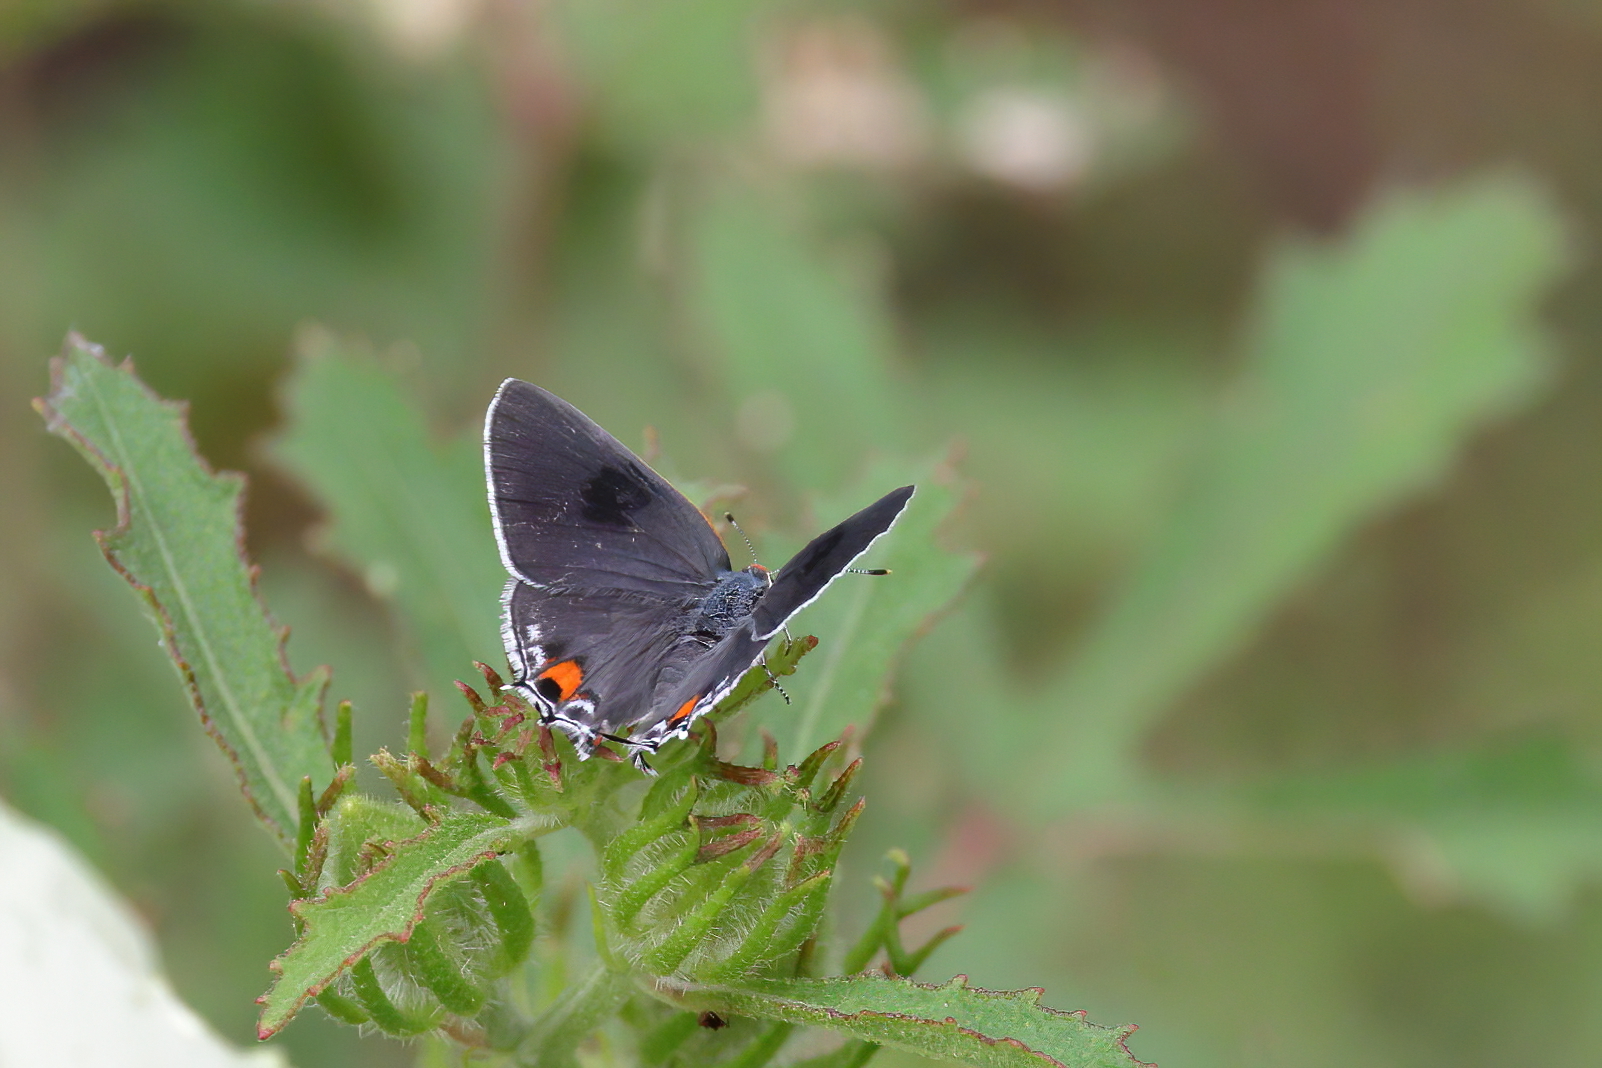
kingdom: Animalia
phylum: Arthropoda
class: Insecta
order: Lepidoptera
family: Lycaenidae
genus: Strymon
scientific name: Strymon melinus
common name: Gray hairstreak
